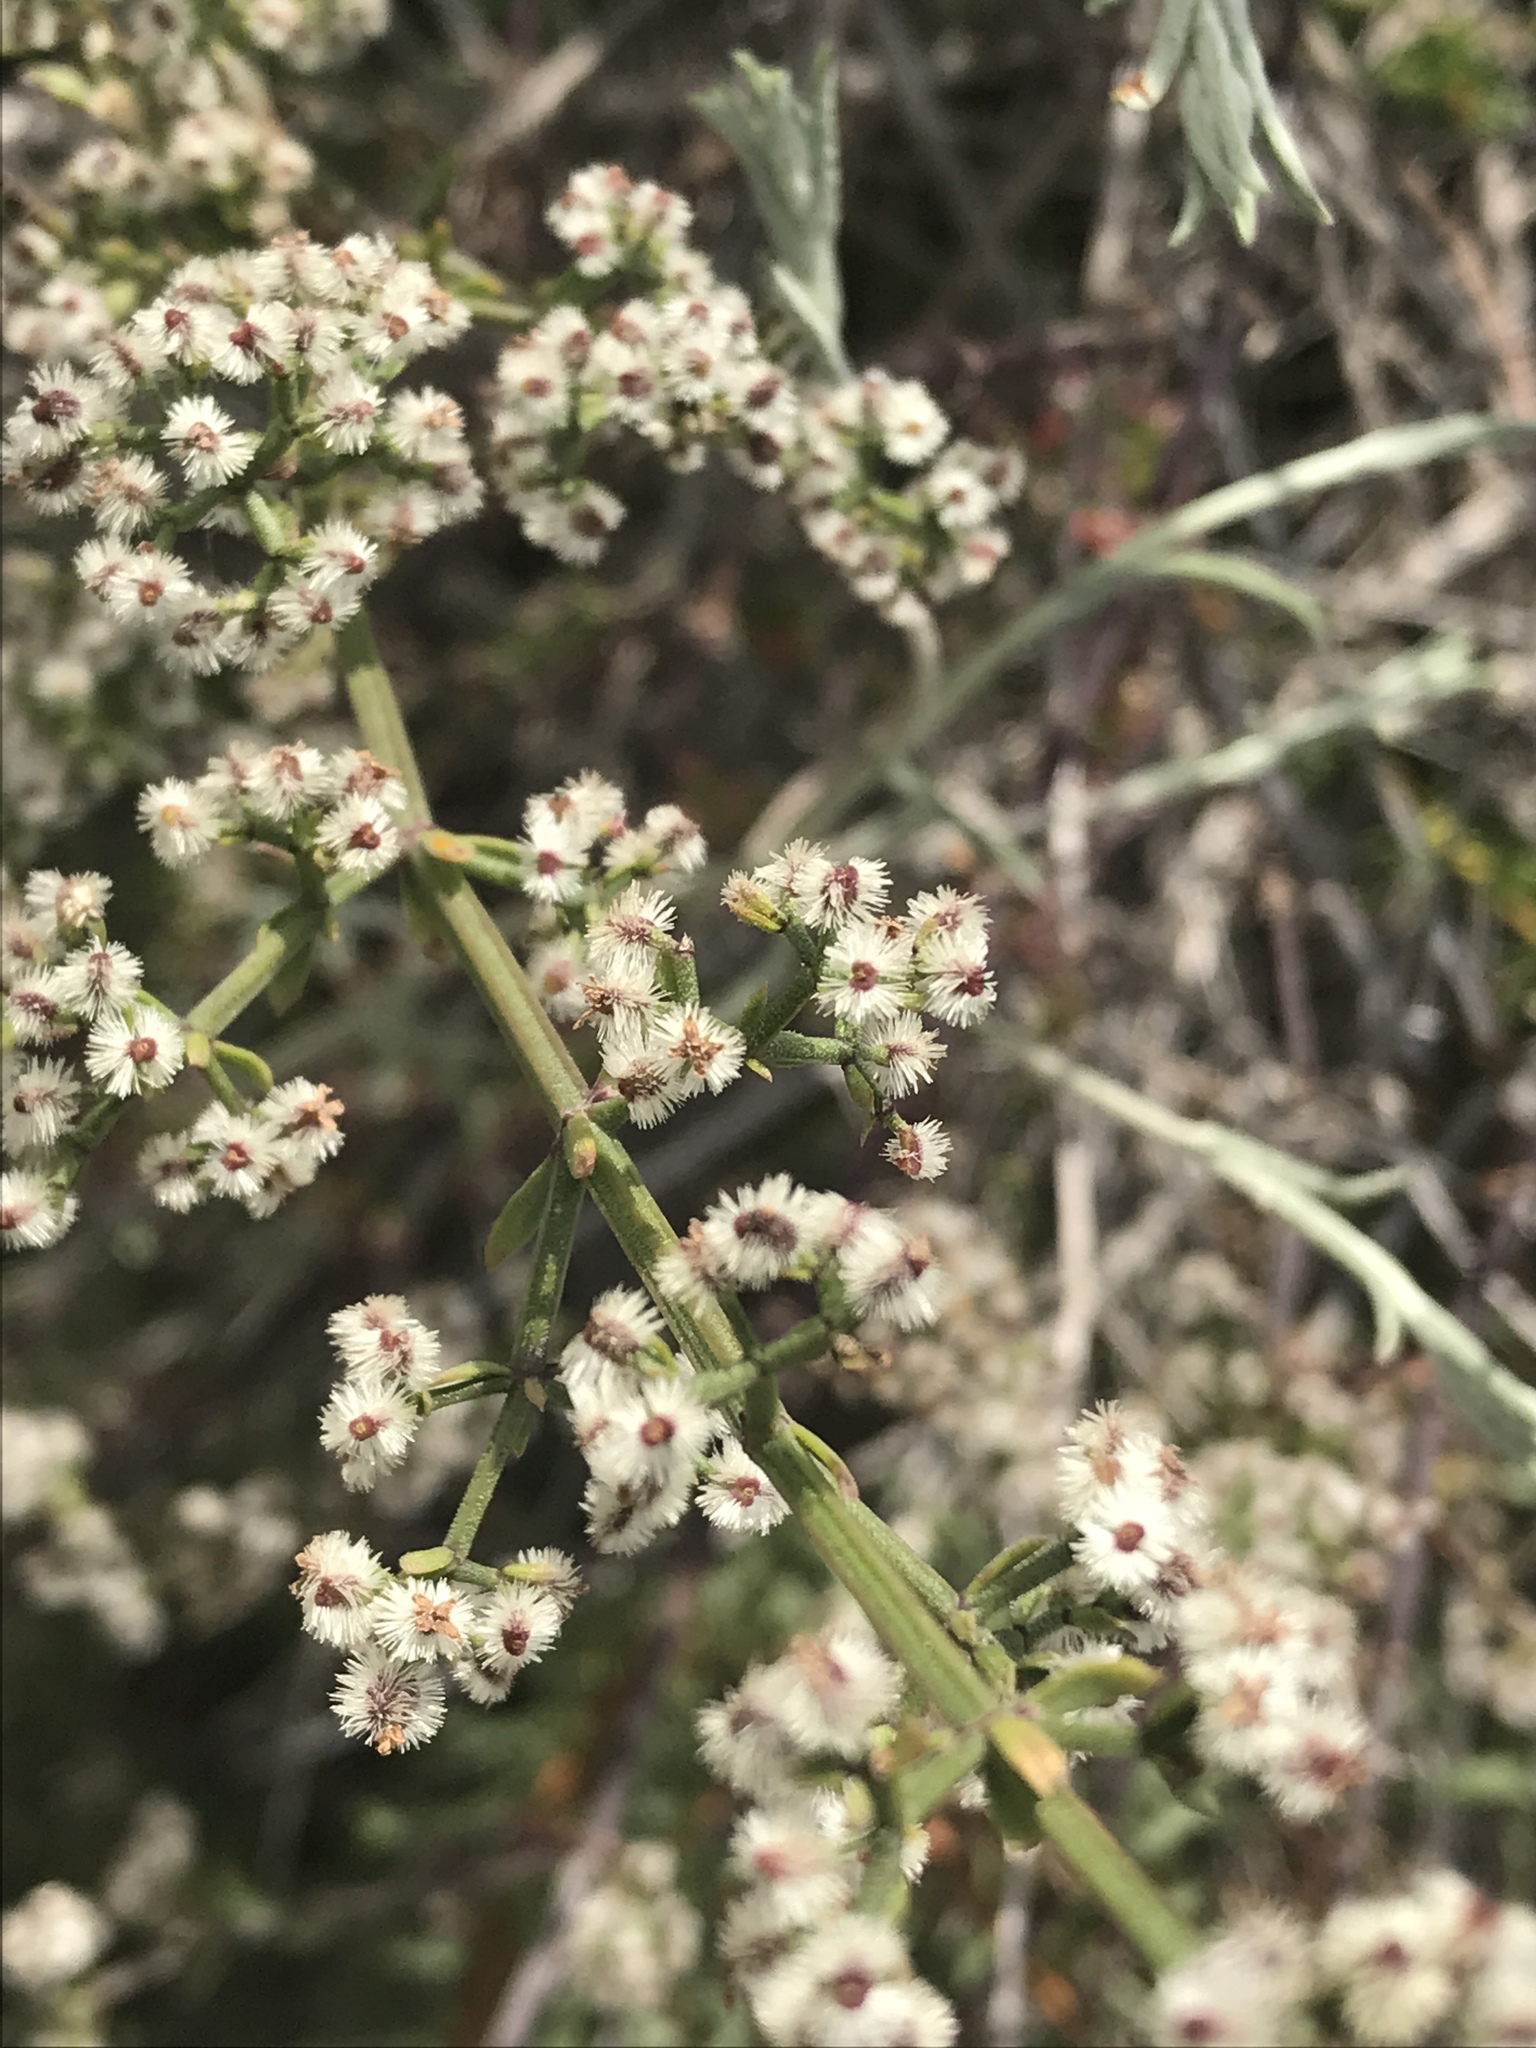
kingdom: Plantae
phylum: Tracheophyta
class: Magnoliopsida
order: Gentianales
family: Rubiaceae
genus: Galium
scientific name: Galium angustifolium
